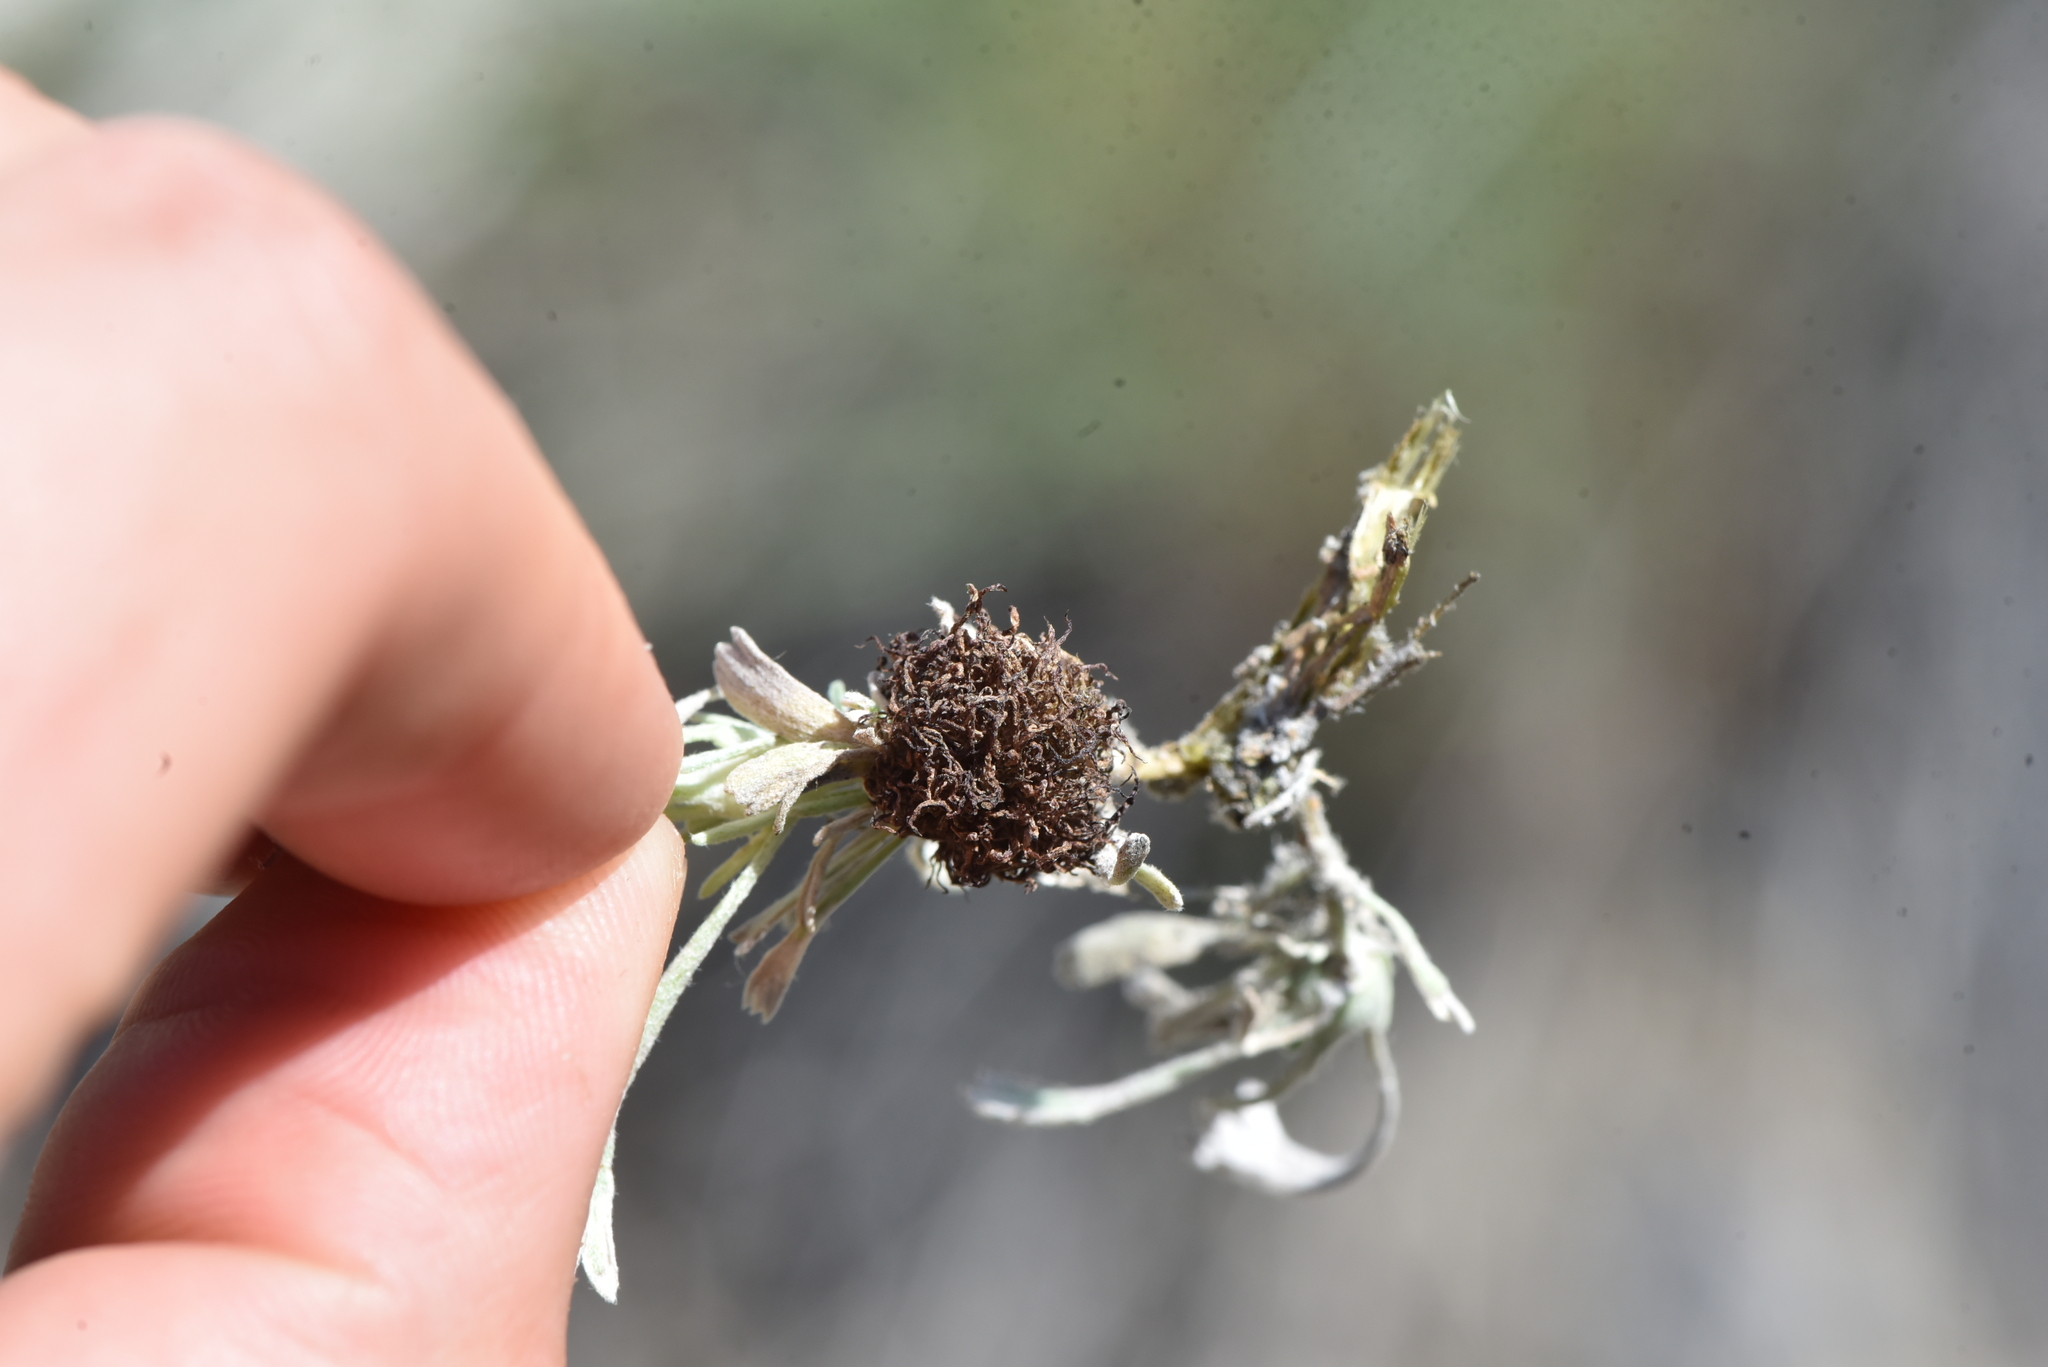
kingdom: Animalia
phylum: Arthropoda
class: Insecta
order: Diptera
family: Cecidomyiidae
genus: Rhopalomyia
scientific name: Rhopalomyia medusa
